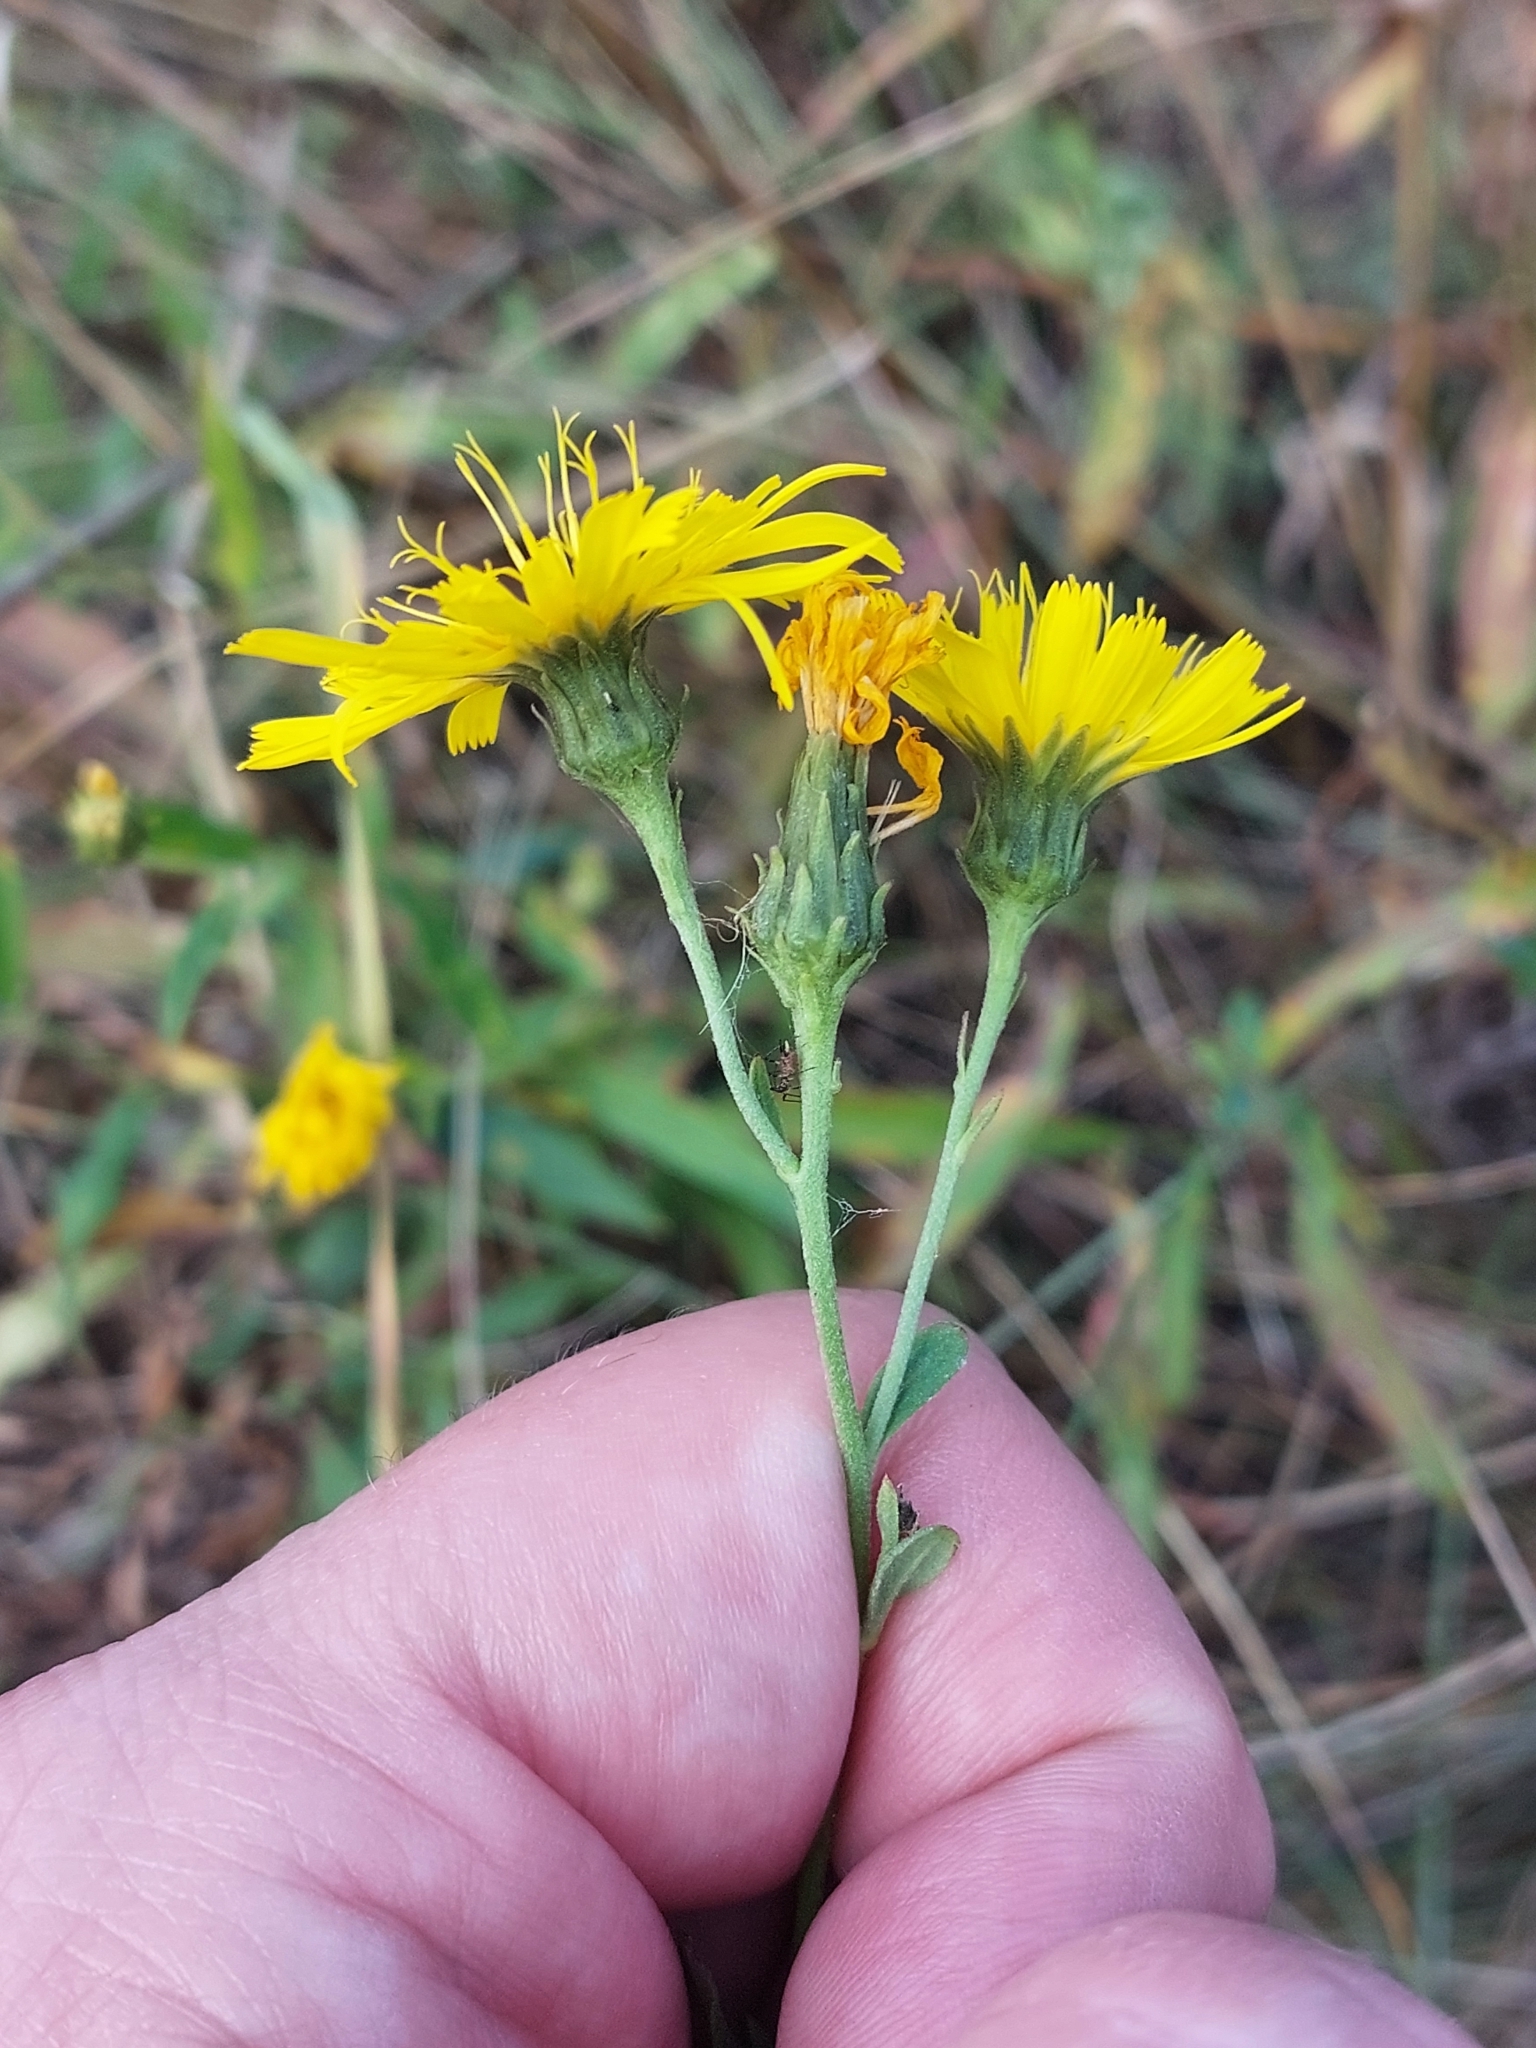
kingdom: Plantae
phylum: Tracheophyta
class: Magnoliopsida
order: Asterales
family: Asteraceae
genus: Hieracium
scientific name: Hieracium umbellatum
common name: Northern hawkweed
